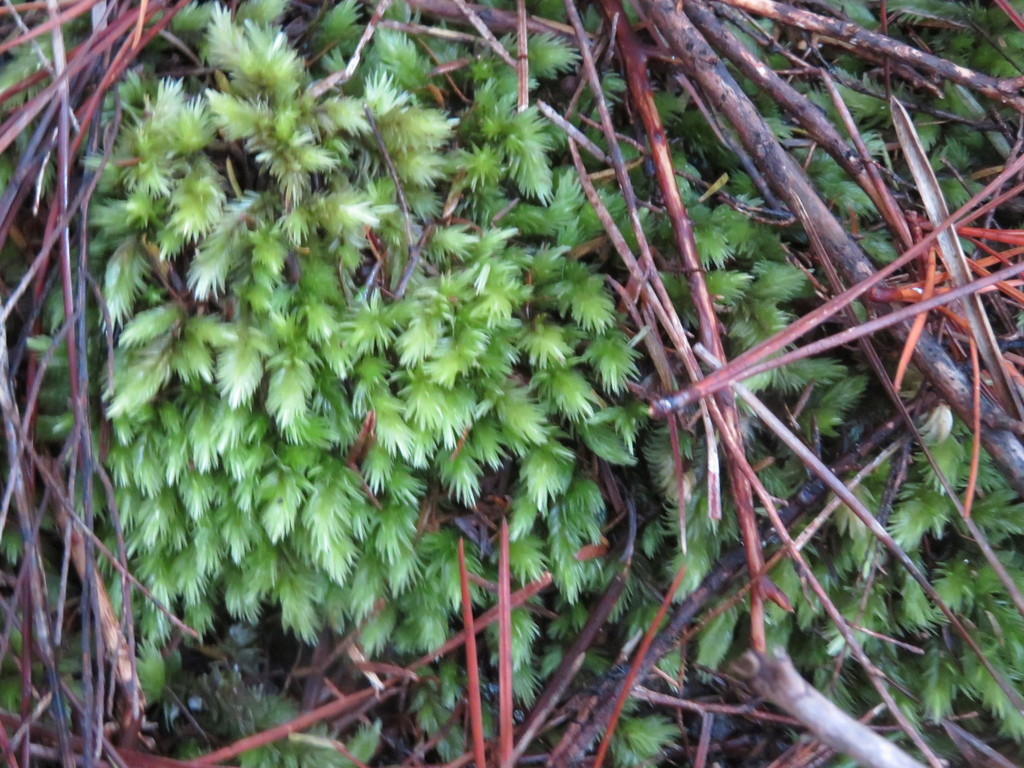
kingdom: Plantae
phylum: Bryophyta
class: Bryopsida
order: Dicranales
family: Leucobryaceae
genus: Leucobryum
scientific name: Leucobryum javense
